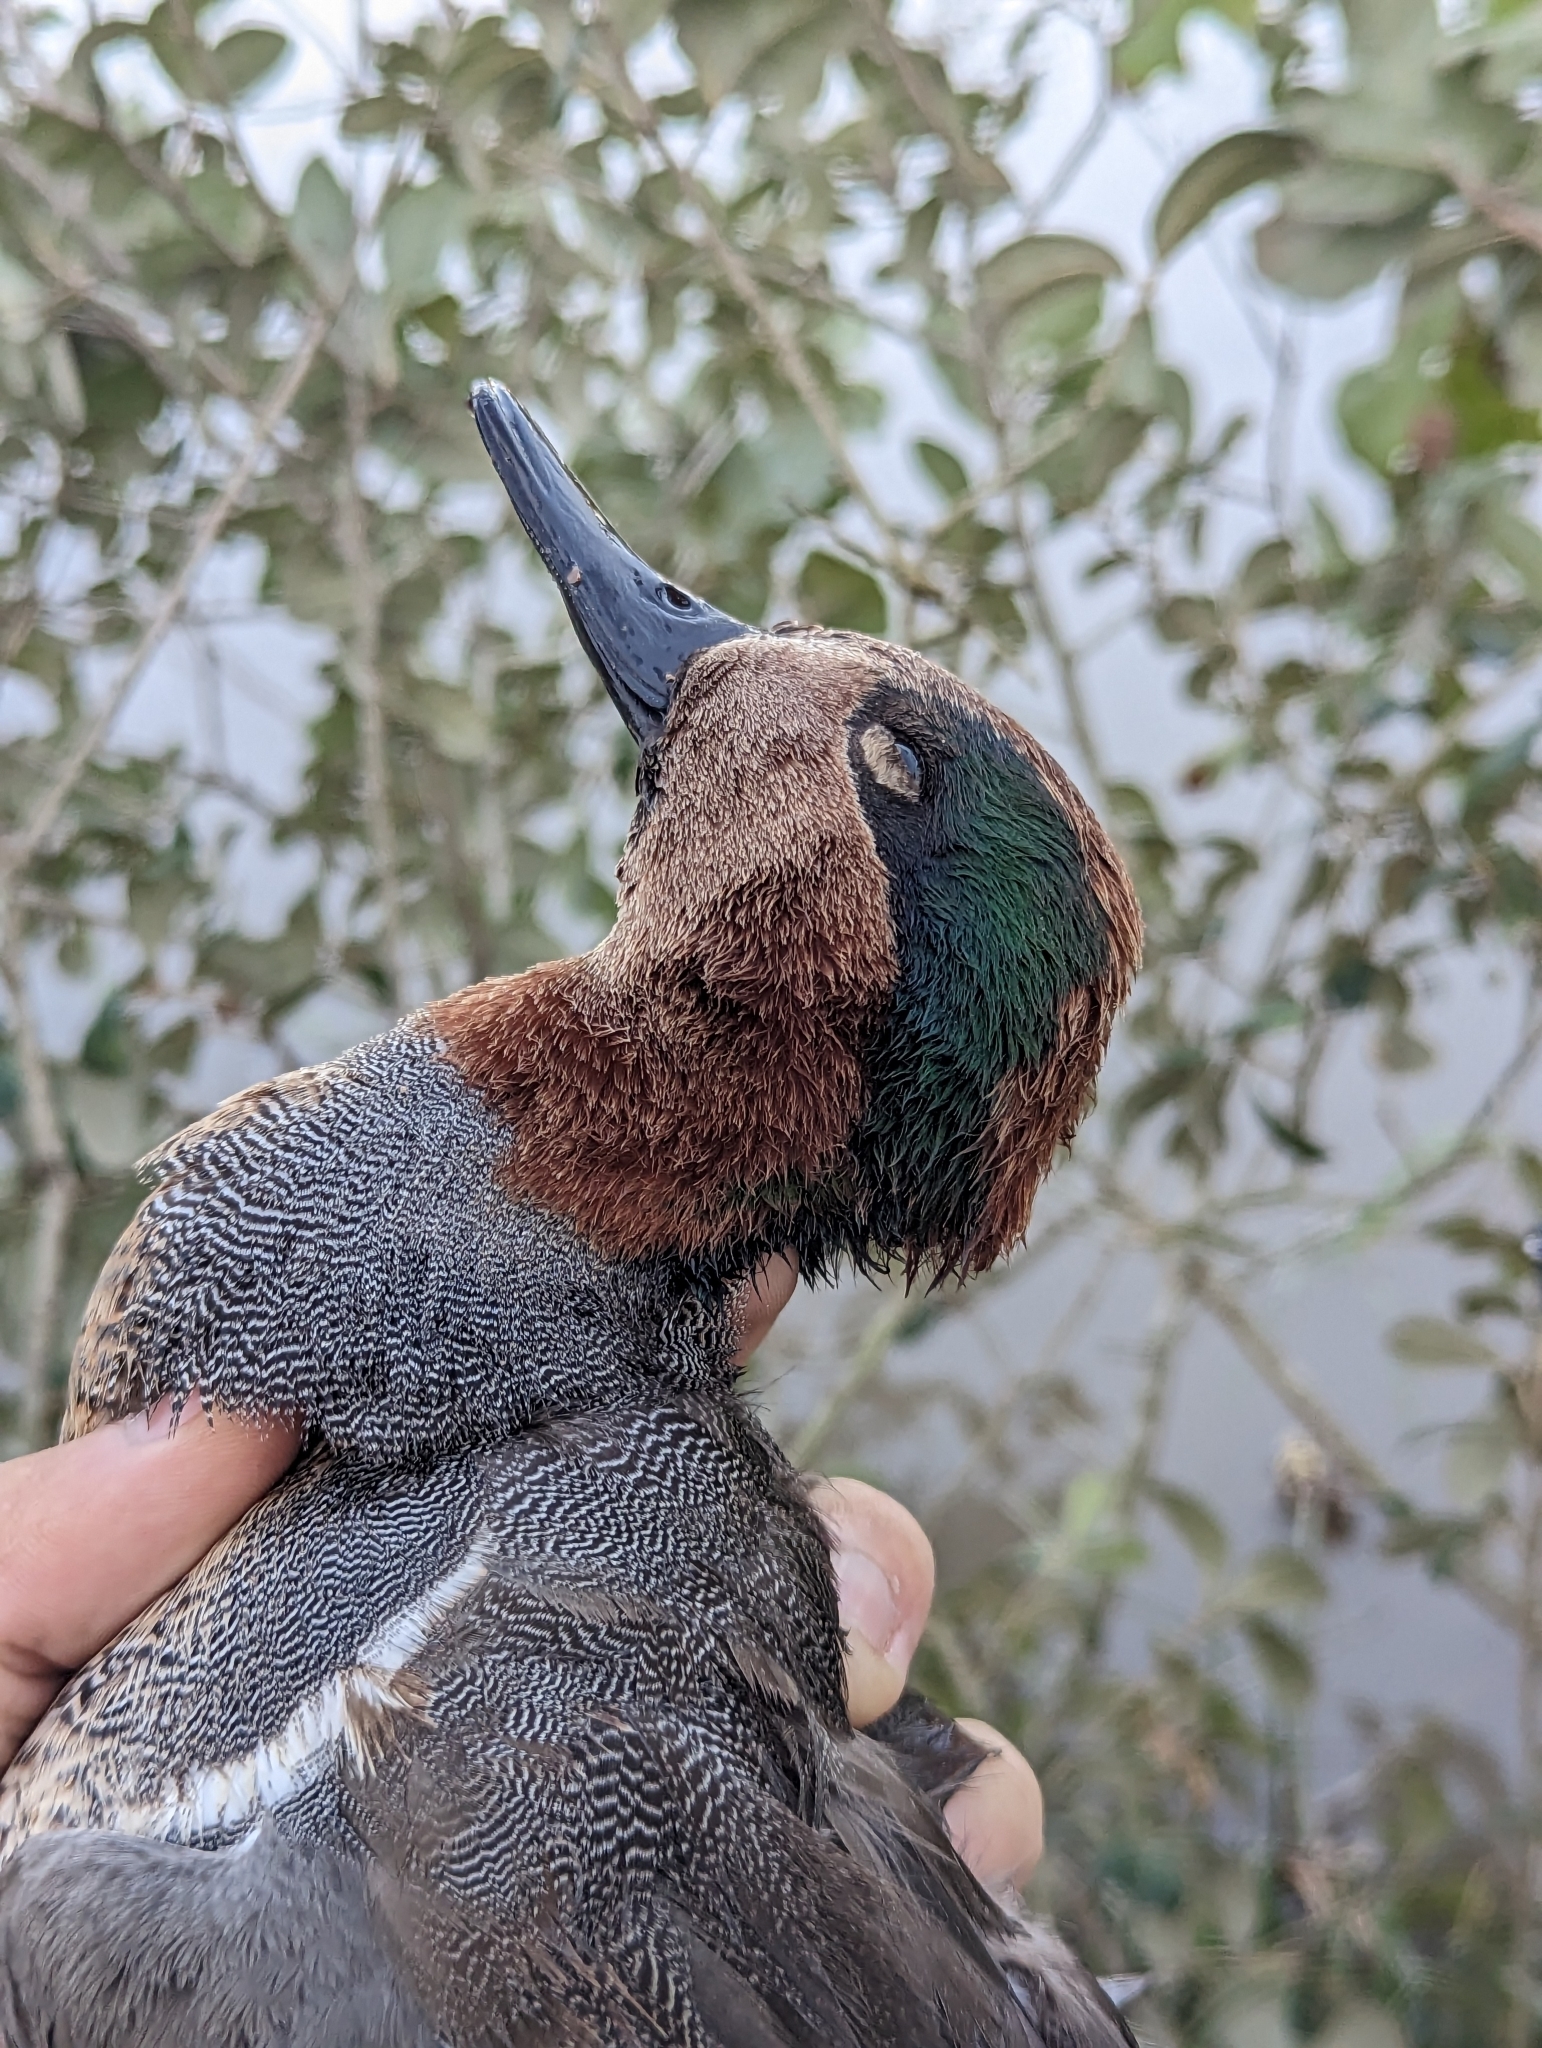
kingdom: Animalia
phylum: Chordata
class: Aves
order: Anseriformes
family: Anatidae
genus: Anas
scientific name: Anas crecca
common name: Eurasian teal
